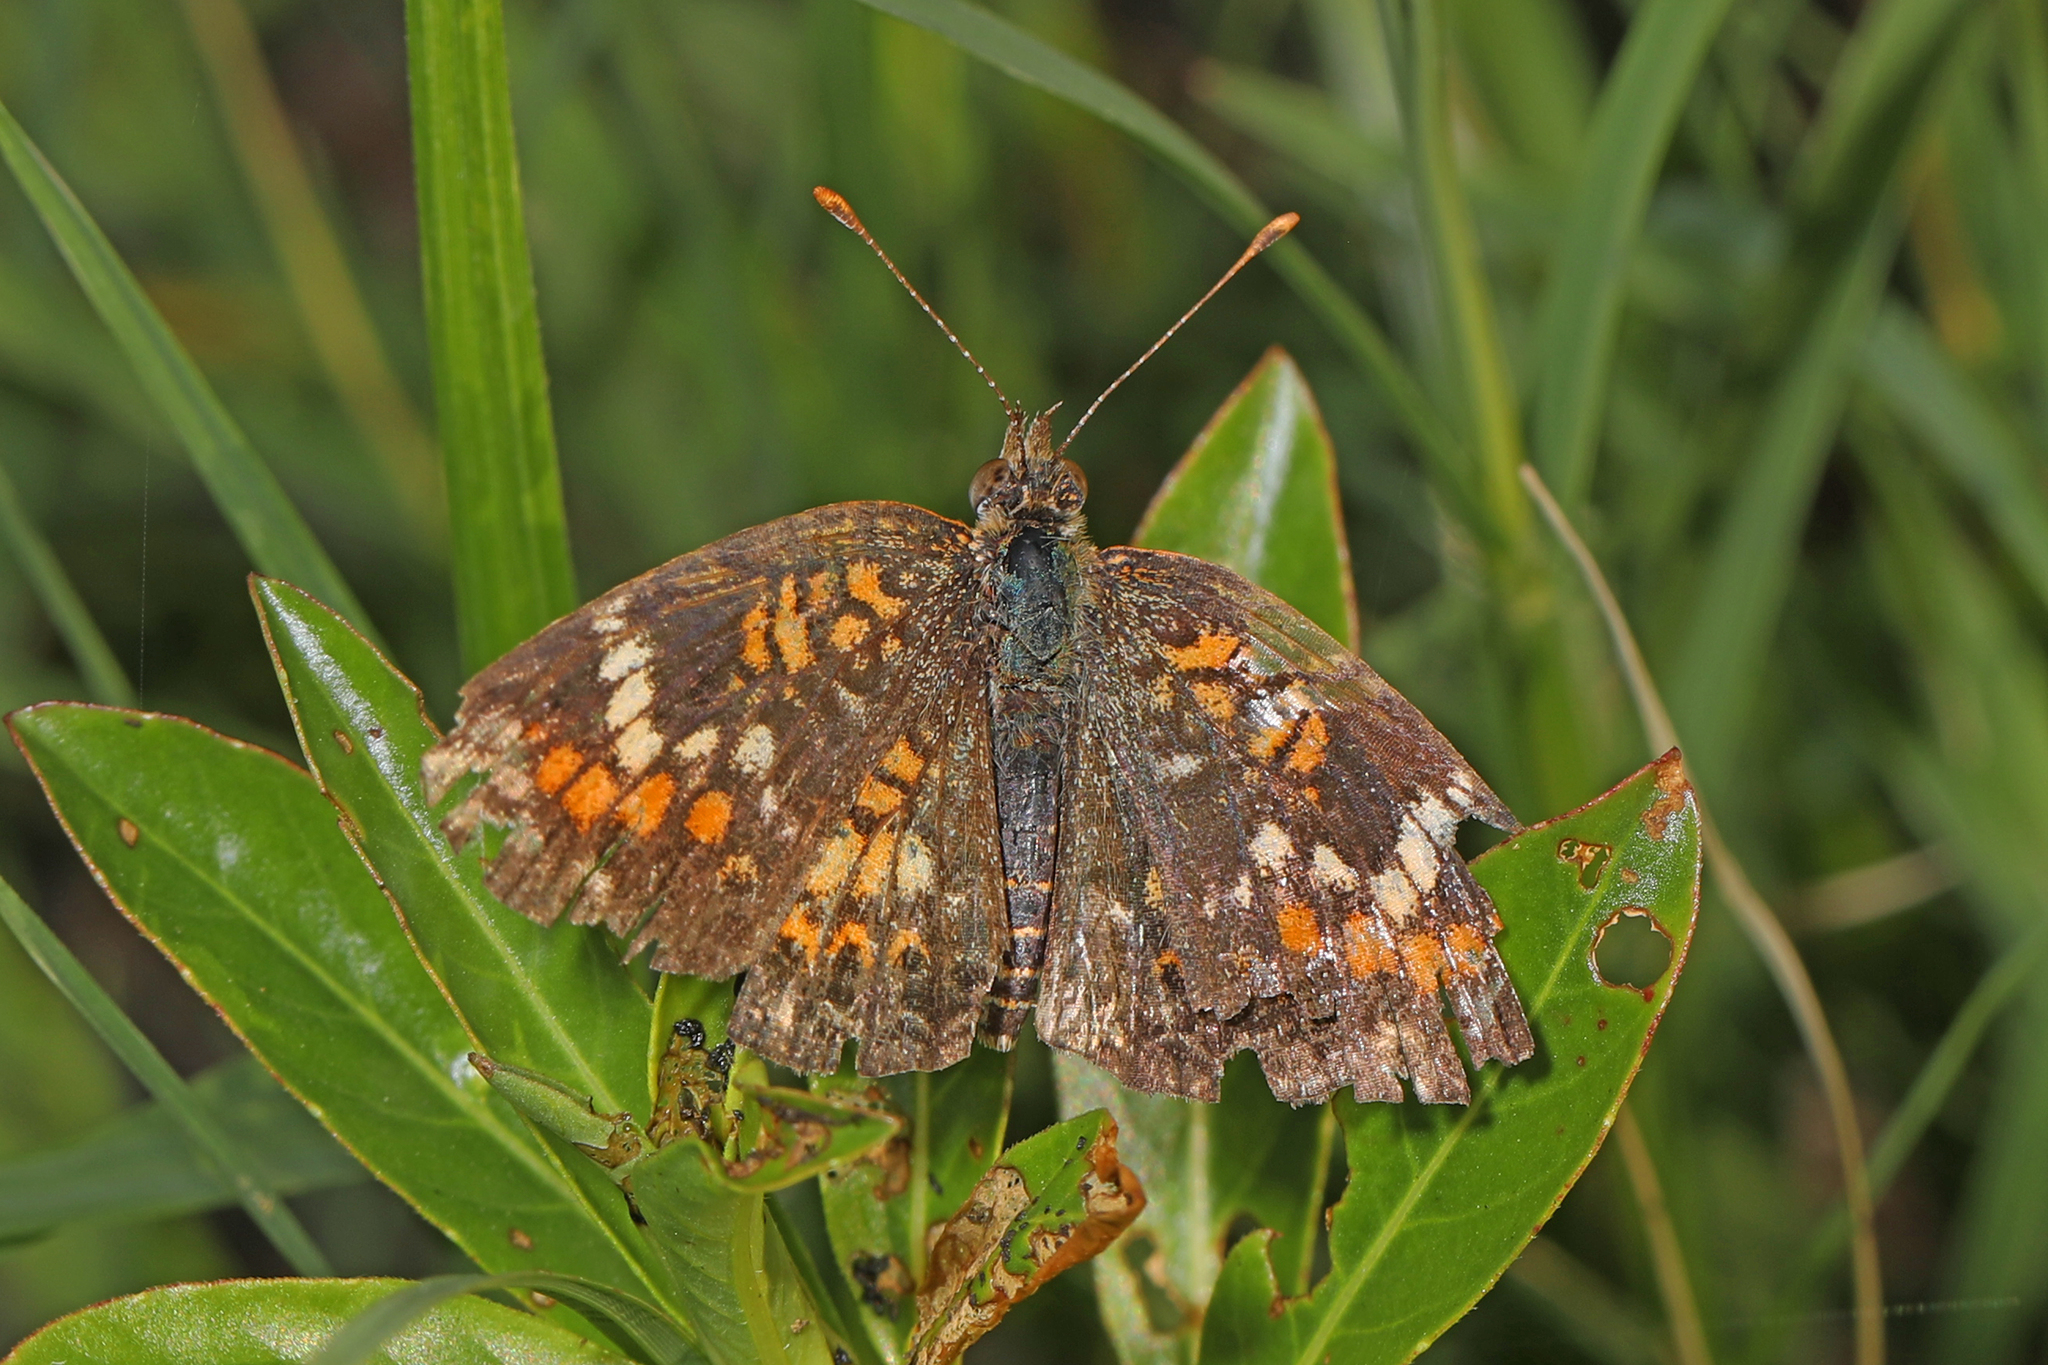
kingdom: Animalia
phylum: Arthropoda
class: Insecta
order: Lepidoptera
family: Nymphalidae
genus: Phyciodes
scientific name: Phyciodes phaon
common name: Phaon crescent
